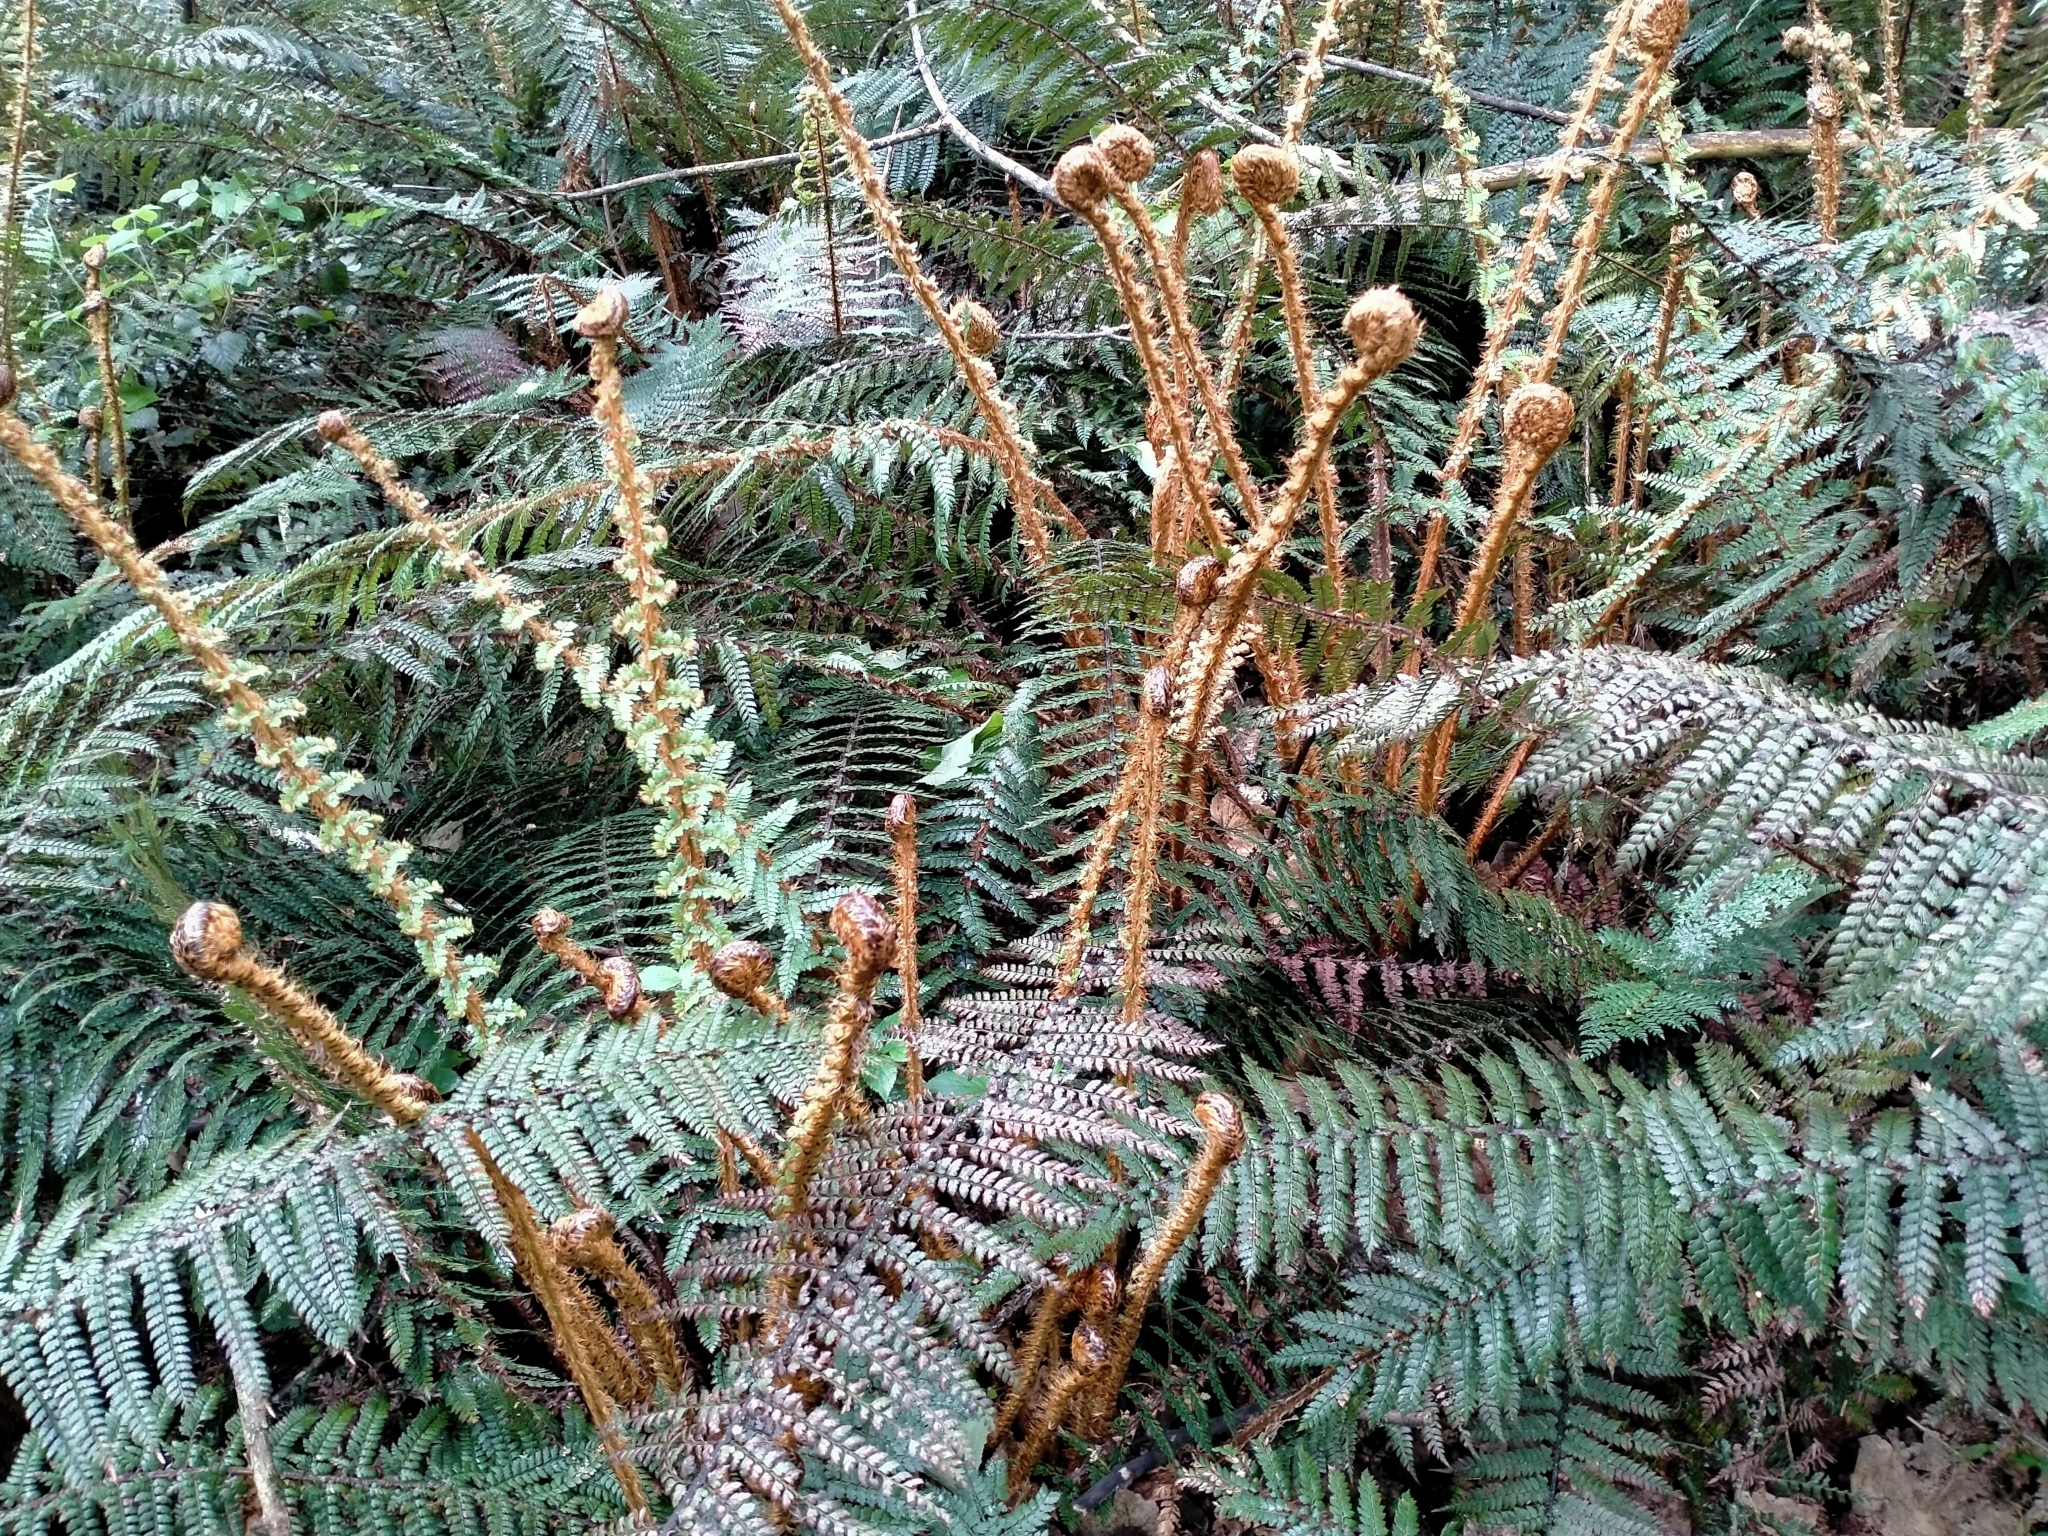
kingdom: Plantae
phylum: Tracheophyta
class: Polypodiopsida
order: Polypodiales
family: Dryopteridaceae
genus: Polystichum
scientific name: Polystichum vestitum
